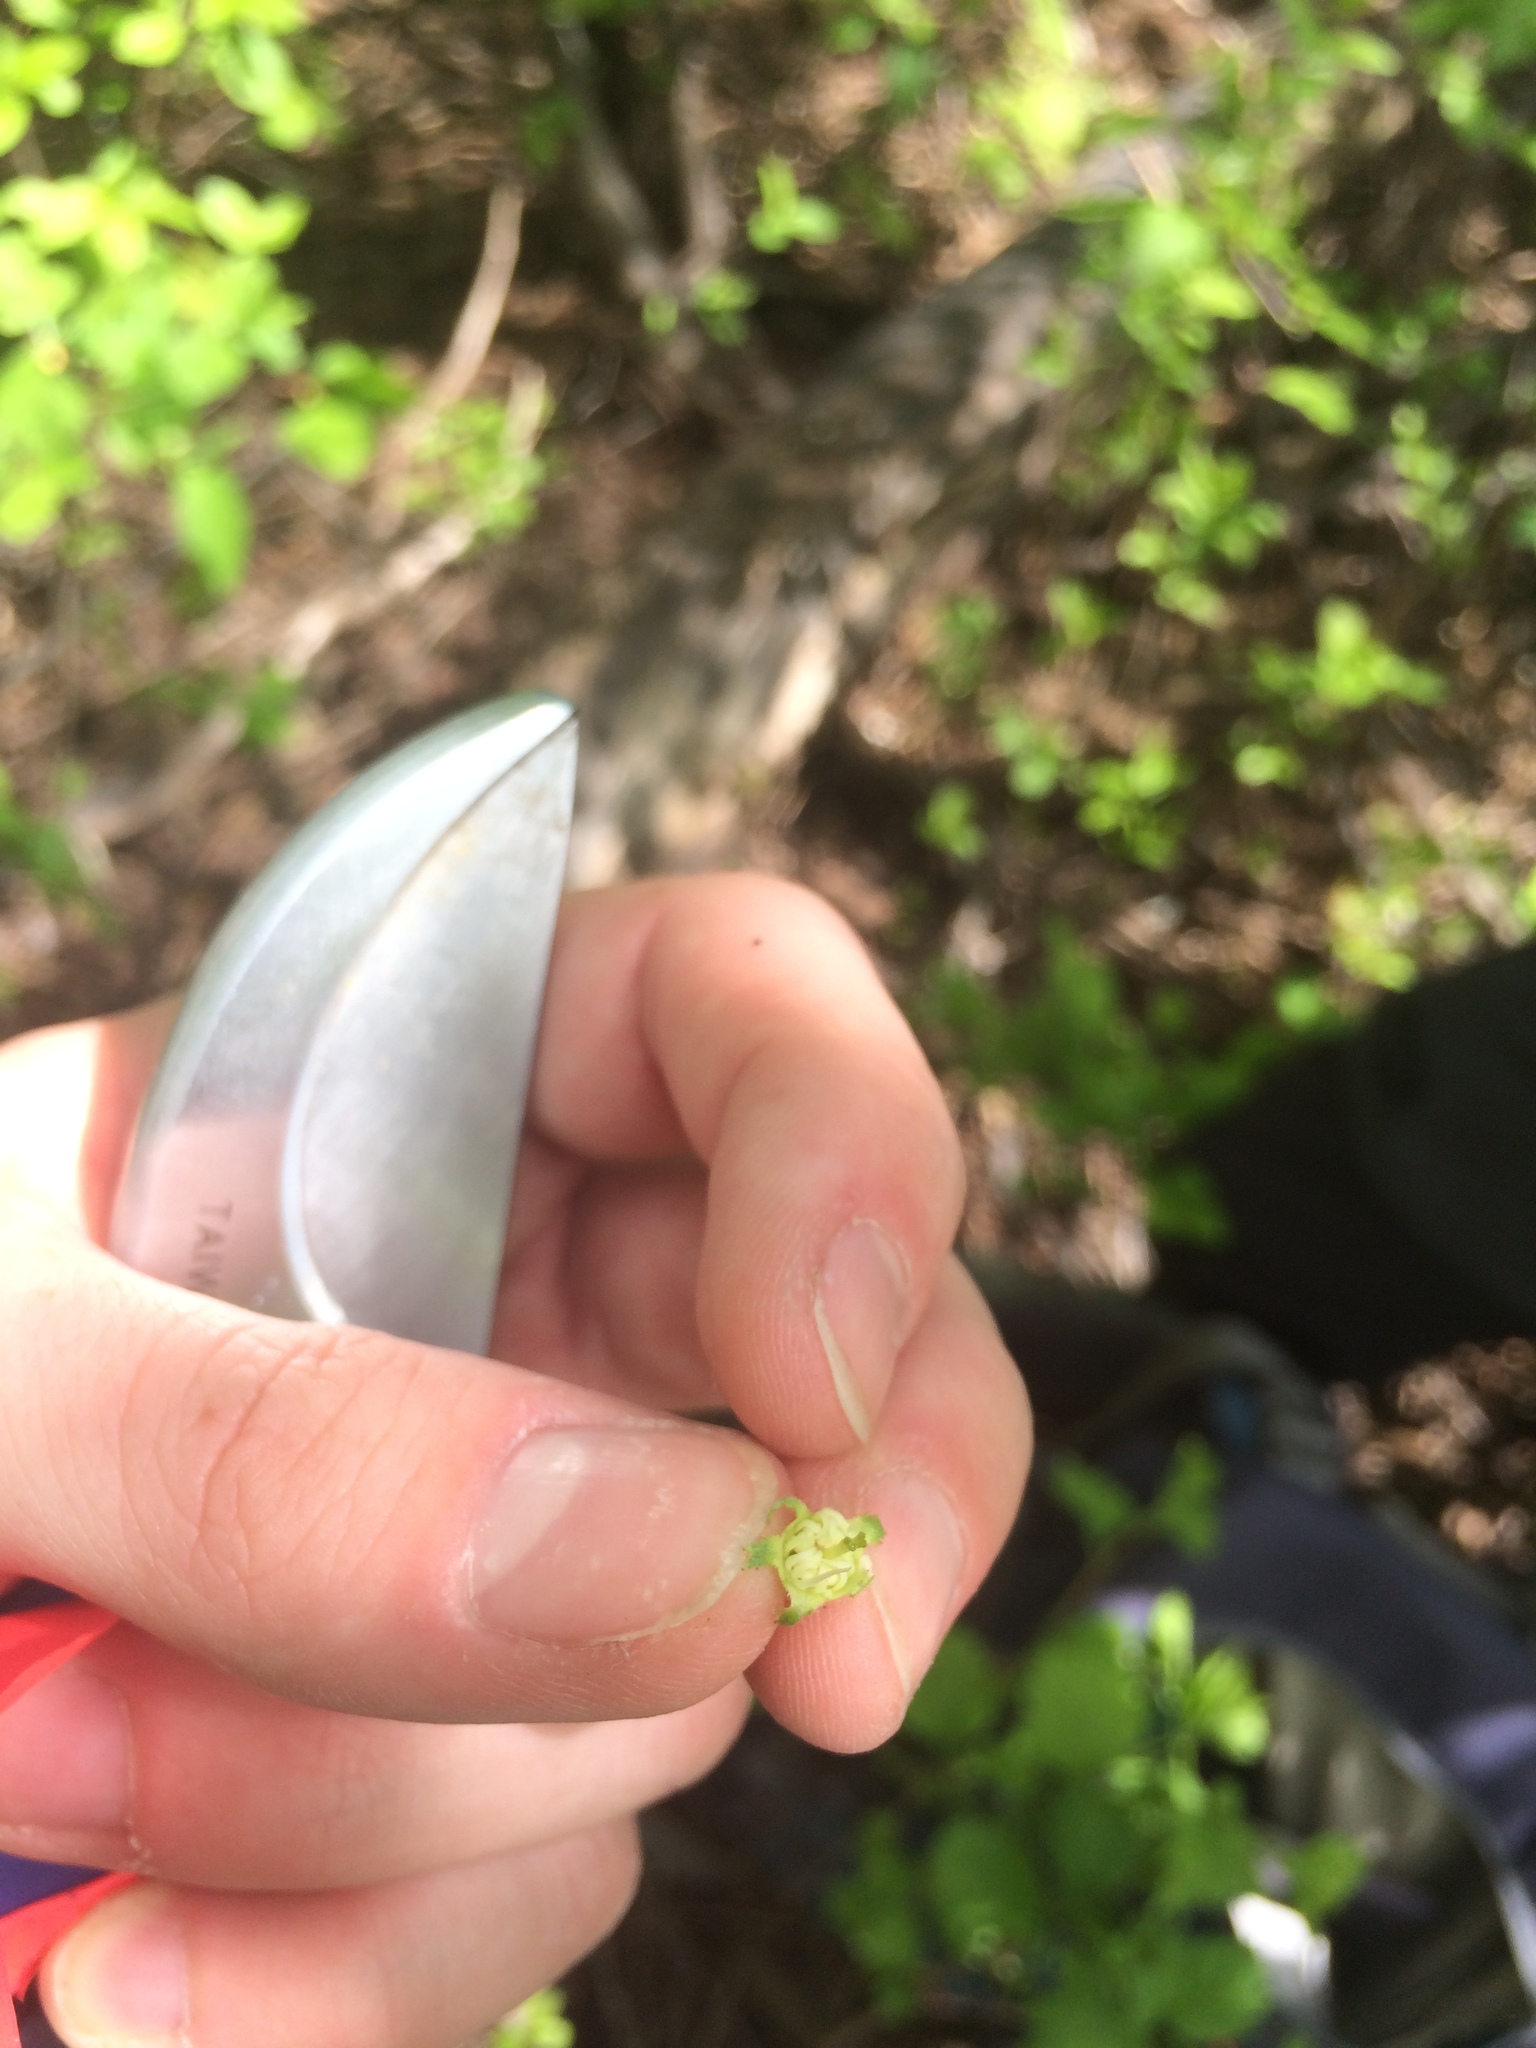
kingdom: Plantae
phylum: Tracheophyta
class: Magnoliopsida
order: Rosales
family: Rosaceae
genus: Crataegus
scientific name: Crataegus irrasa
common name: Unshorn hawthorn
